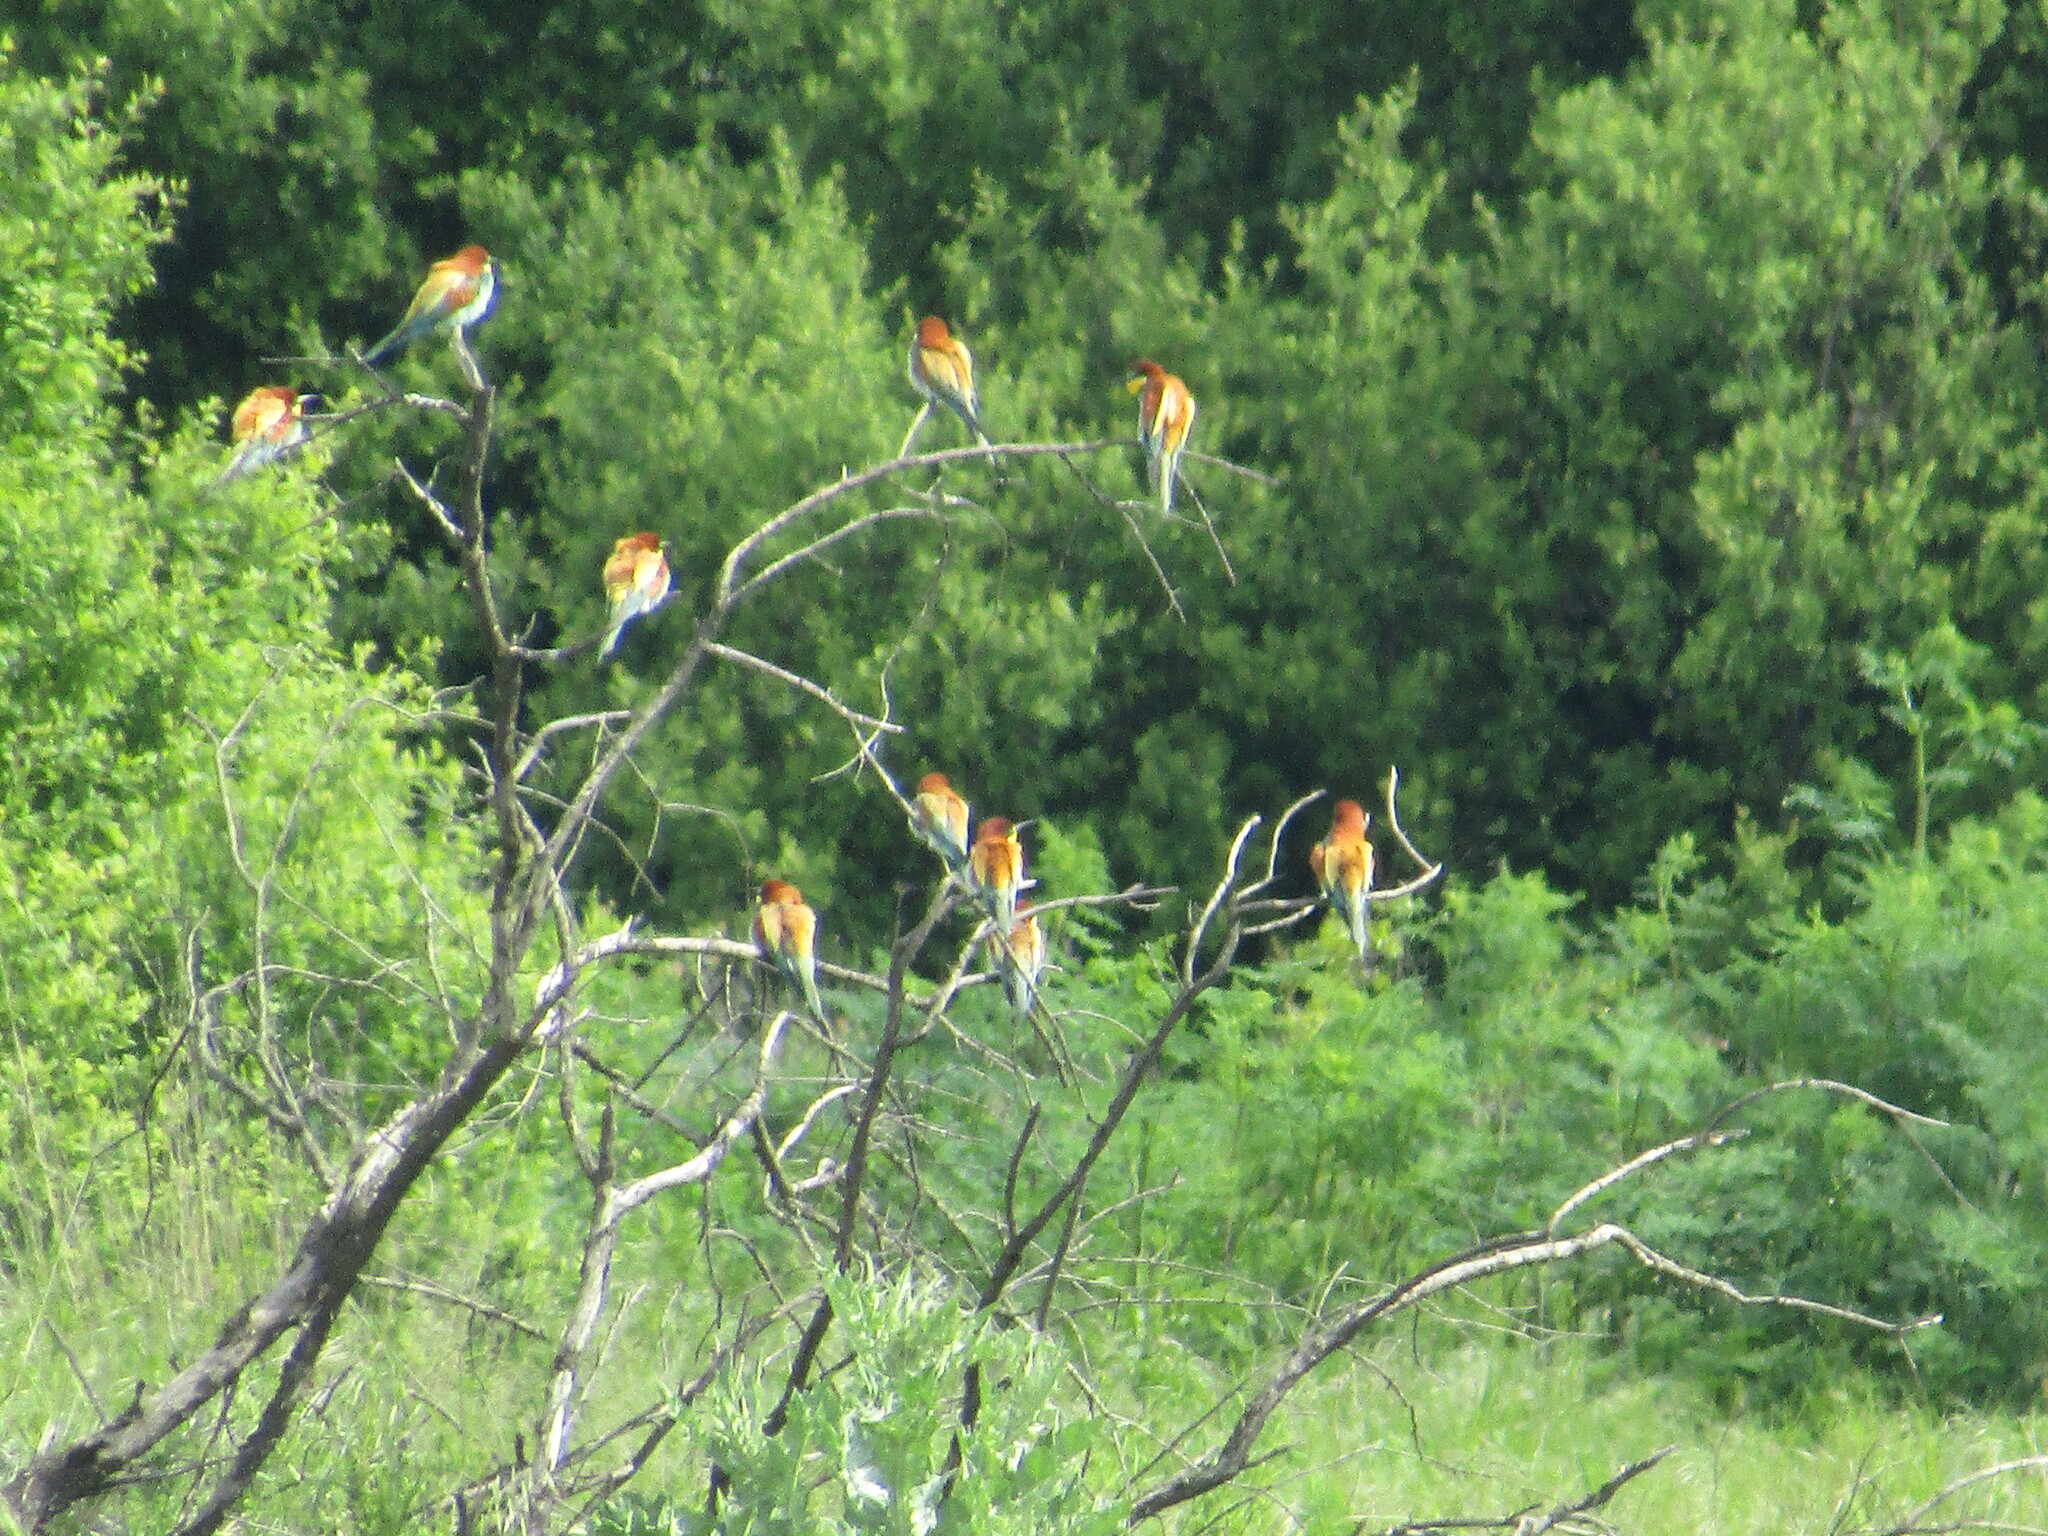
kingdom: Animalia
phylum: Chordata
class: Aves
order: Coraciiformes
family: Meropidae
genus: Merops
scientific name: Merops apiaster
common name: European bee-eater
